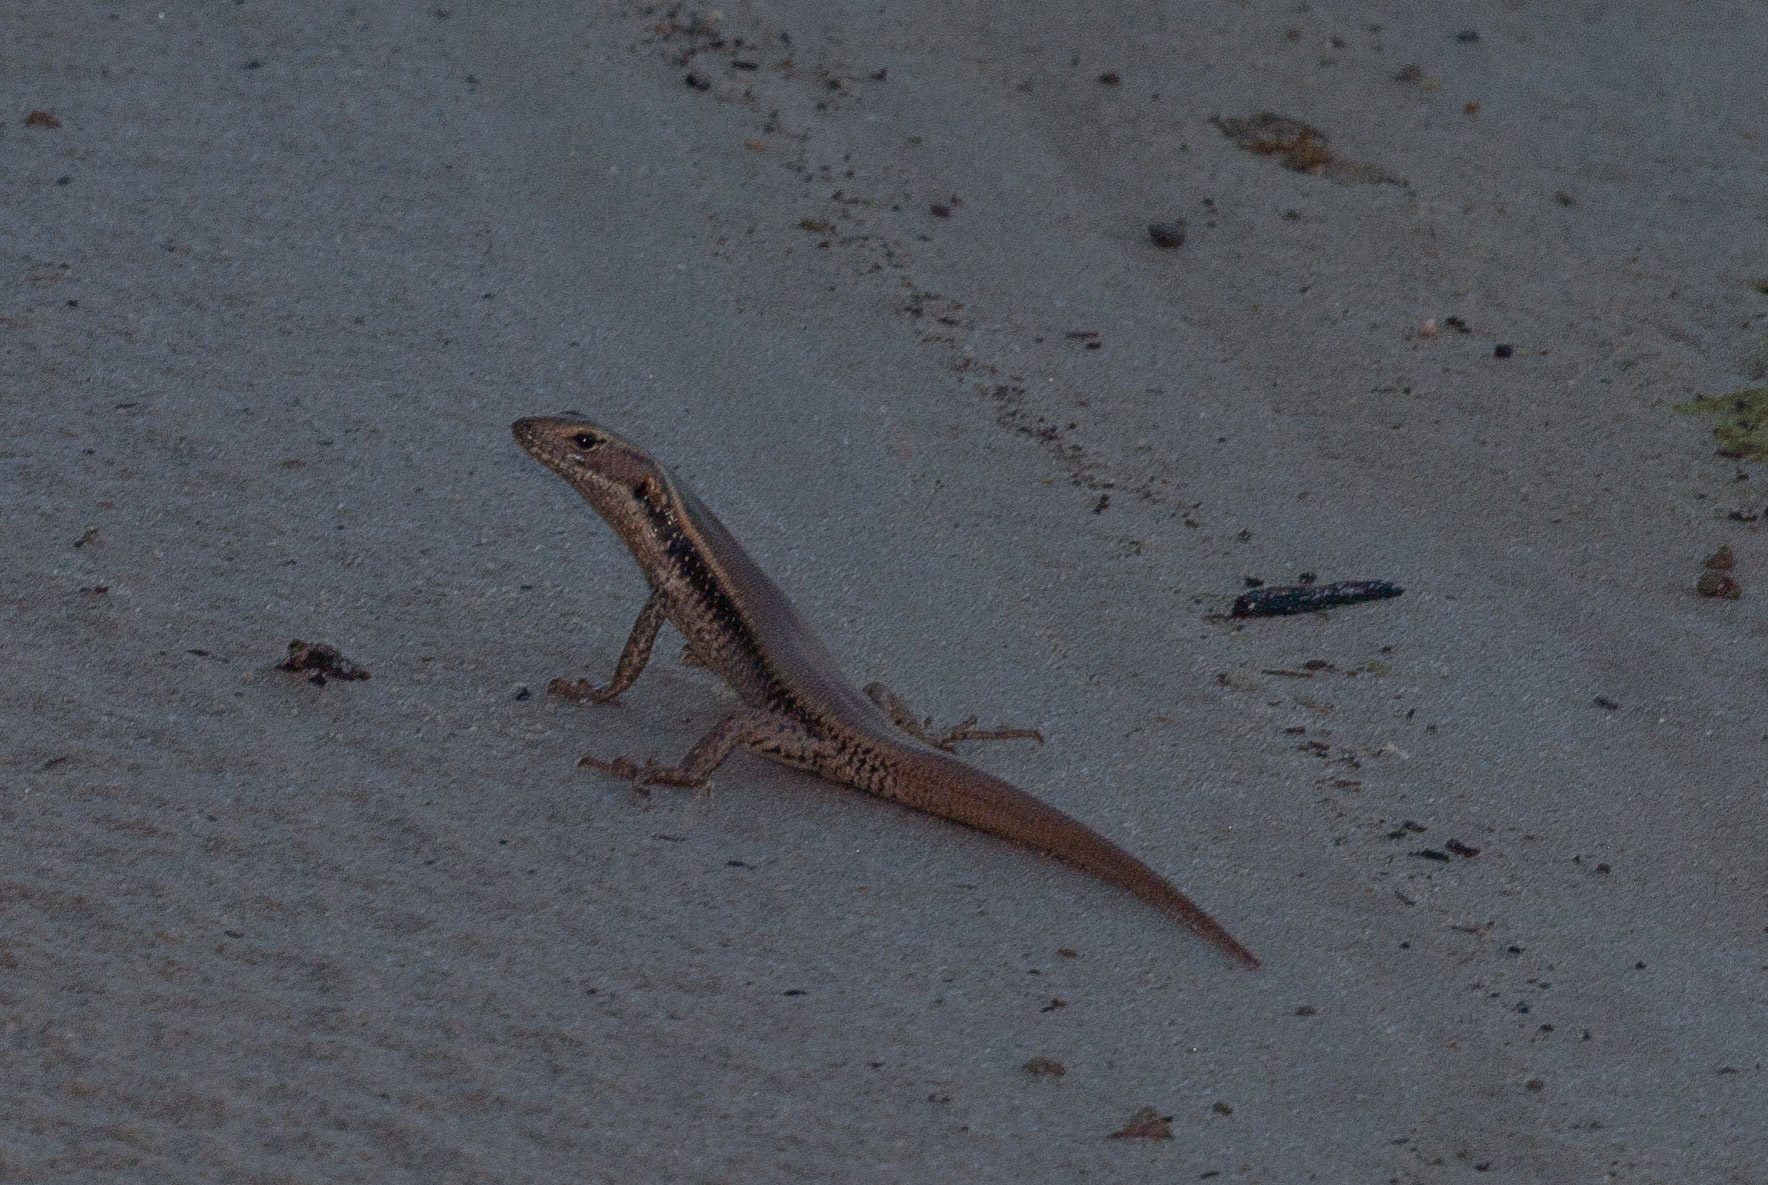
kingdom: Animalia
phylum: Chordata
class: Squamata
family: Scincidae
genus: Eulamprus
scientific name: Eulamprus quoyii
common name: Eastern water skink
